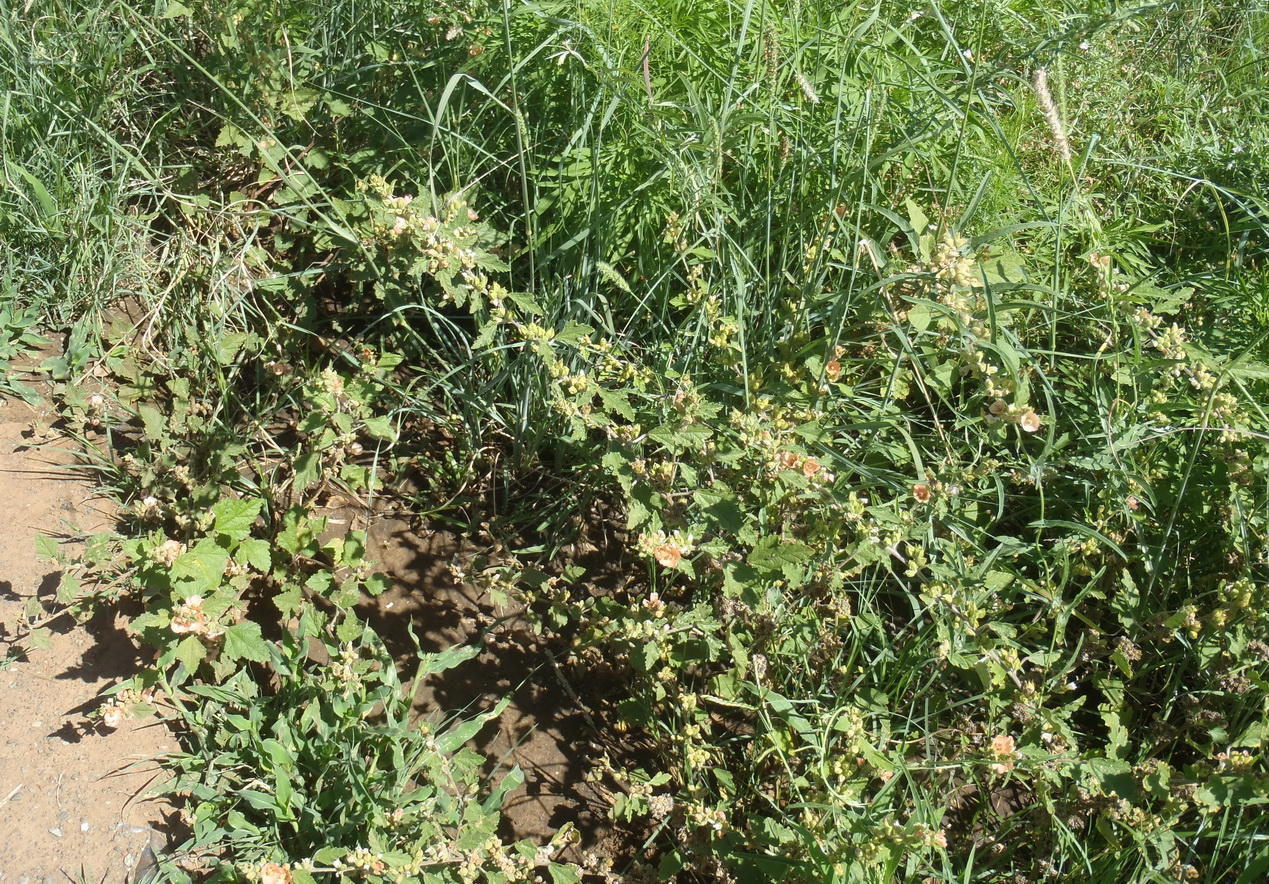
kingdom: Plantae
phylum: Tracheophyta
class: Magnoliopsida
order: Malvales
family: Malvaceae
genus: Sphaeralcea
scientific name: Sphaeralcea bonariensis
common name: Latin globemallow
